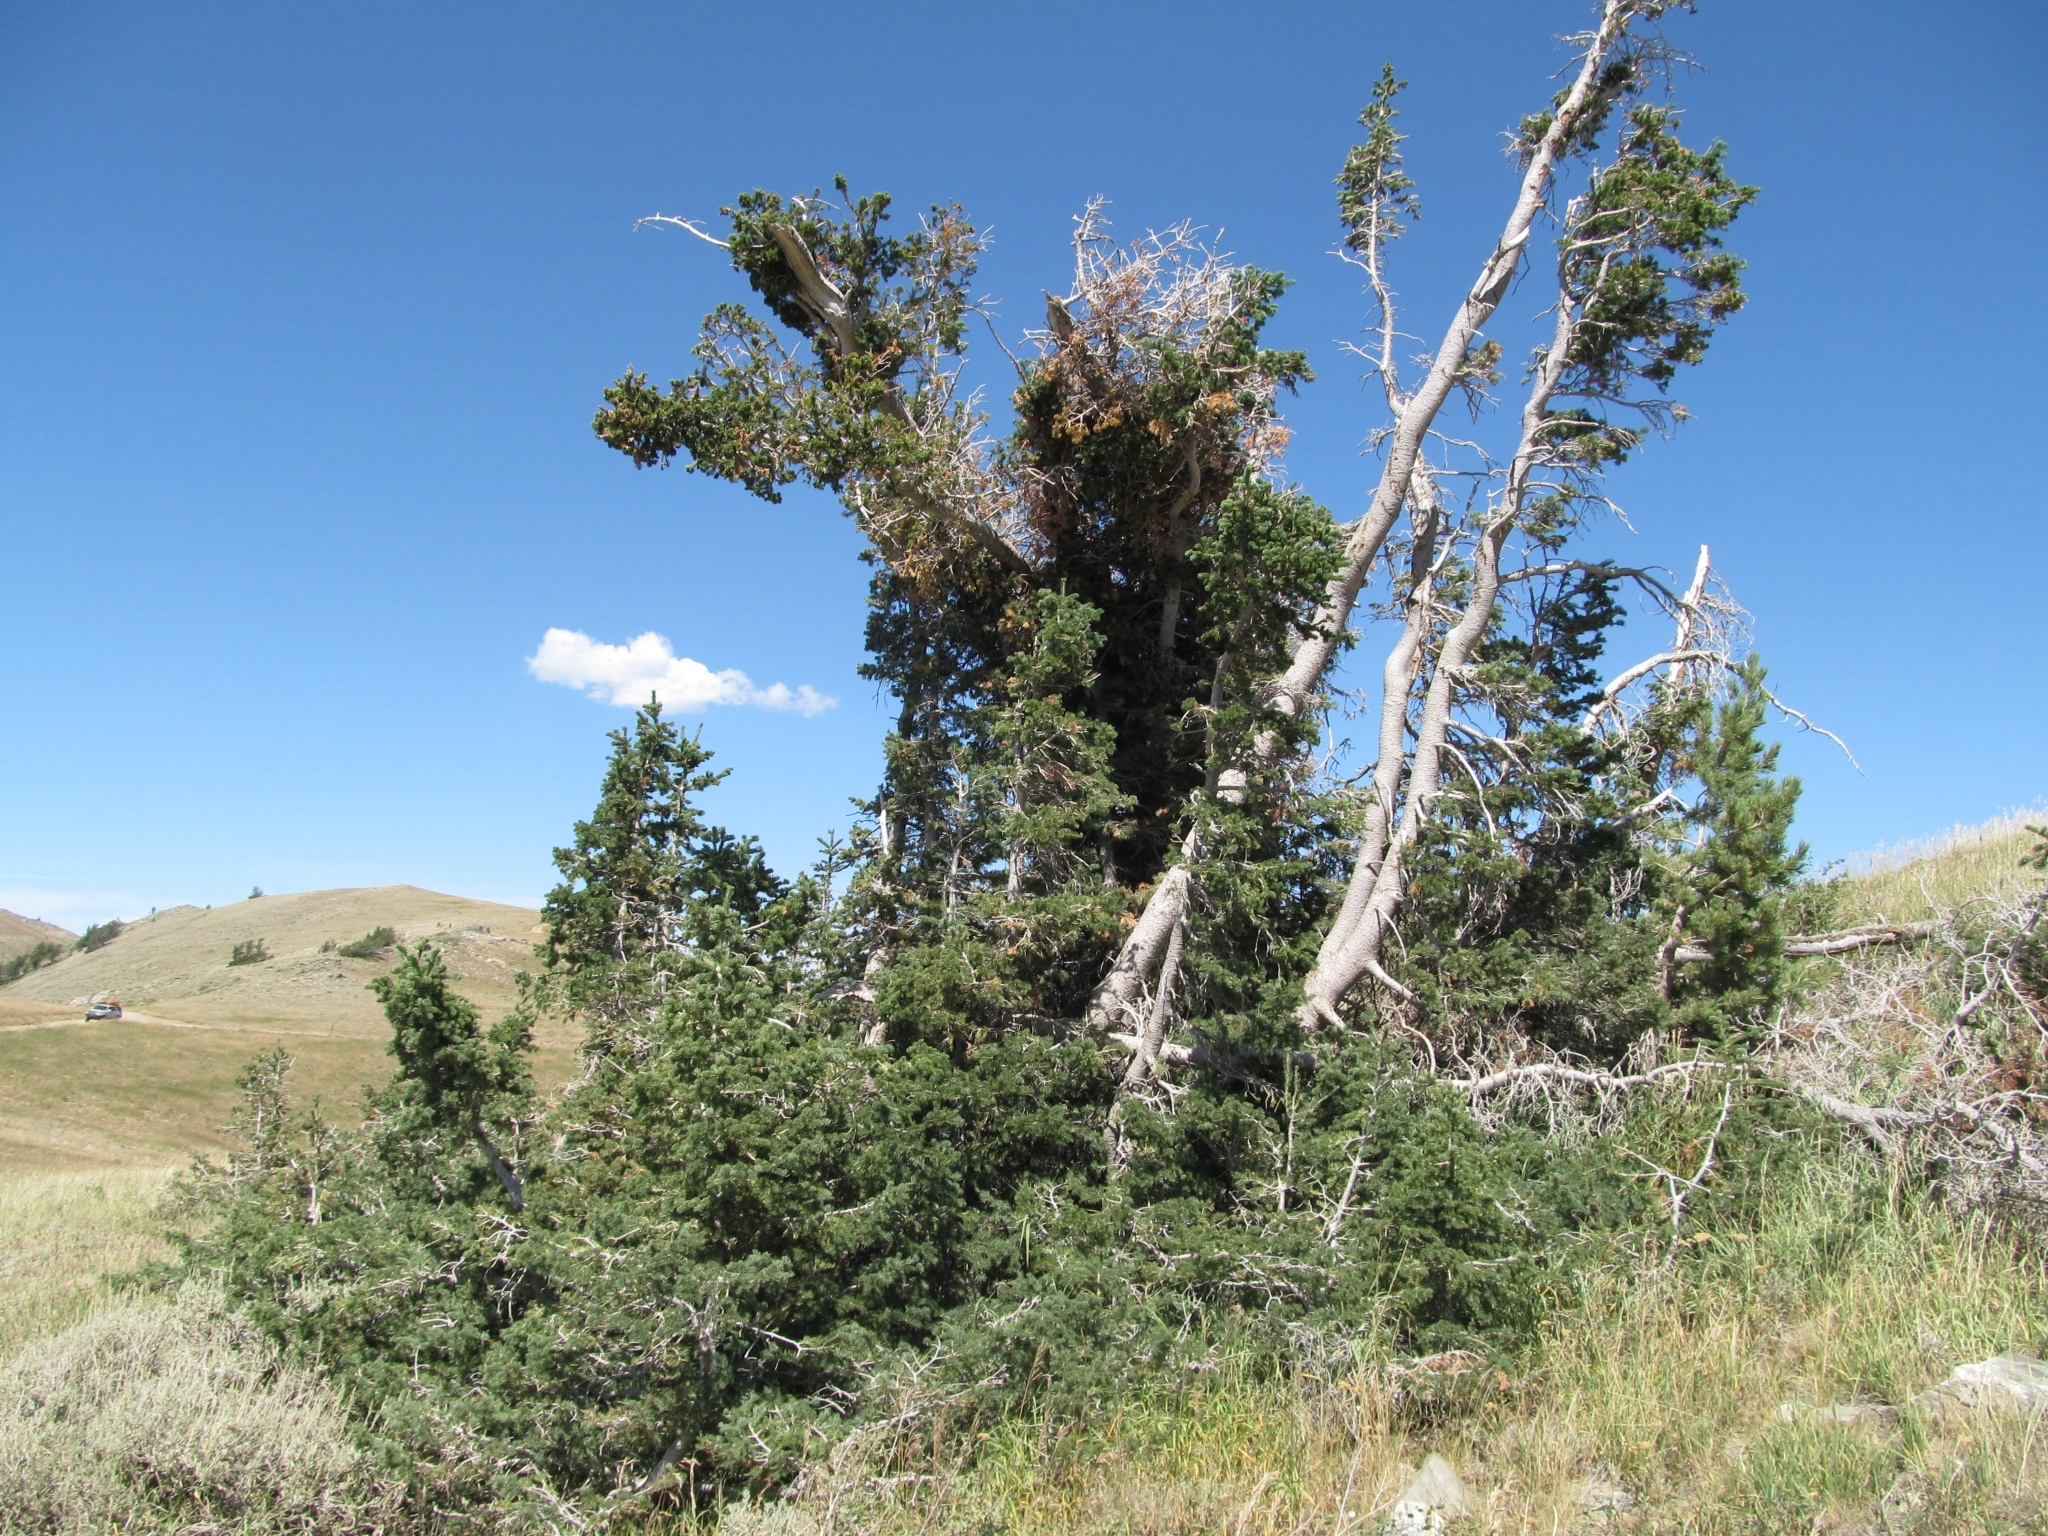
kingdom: Plantae
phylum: Tracheophyta
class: Pinopsida
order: Pinales
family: Pinaceae
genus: Abies
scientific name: Abies lasiocarpa
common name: Subalpine fir
